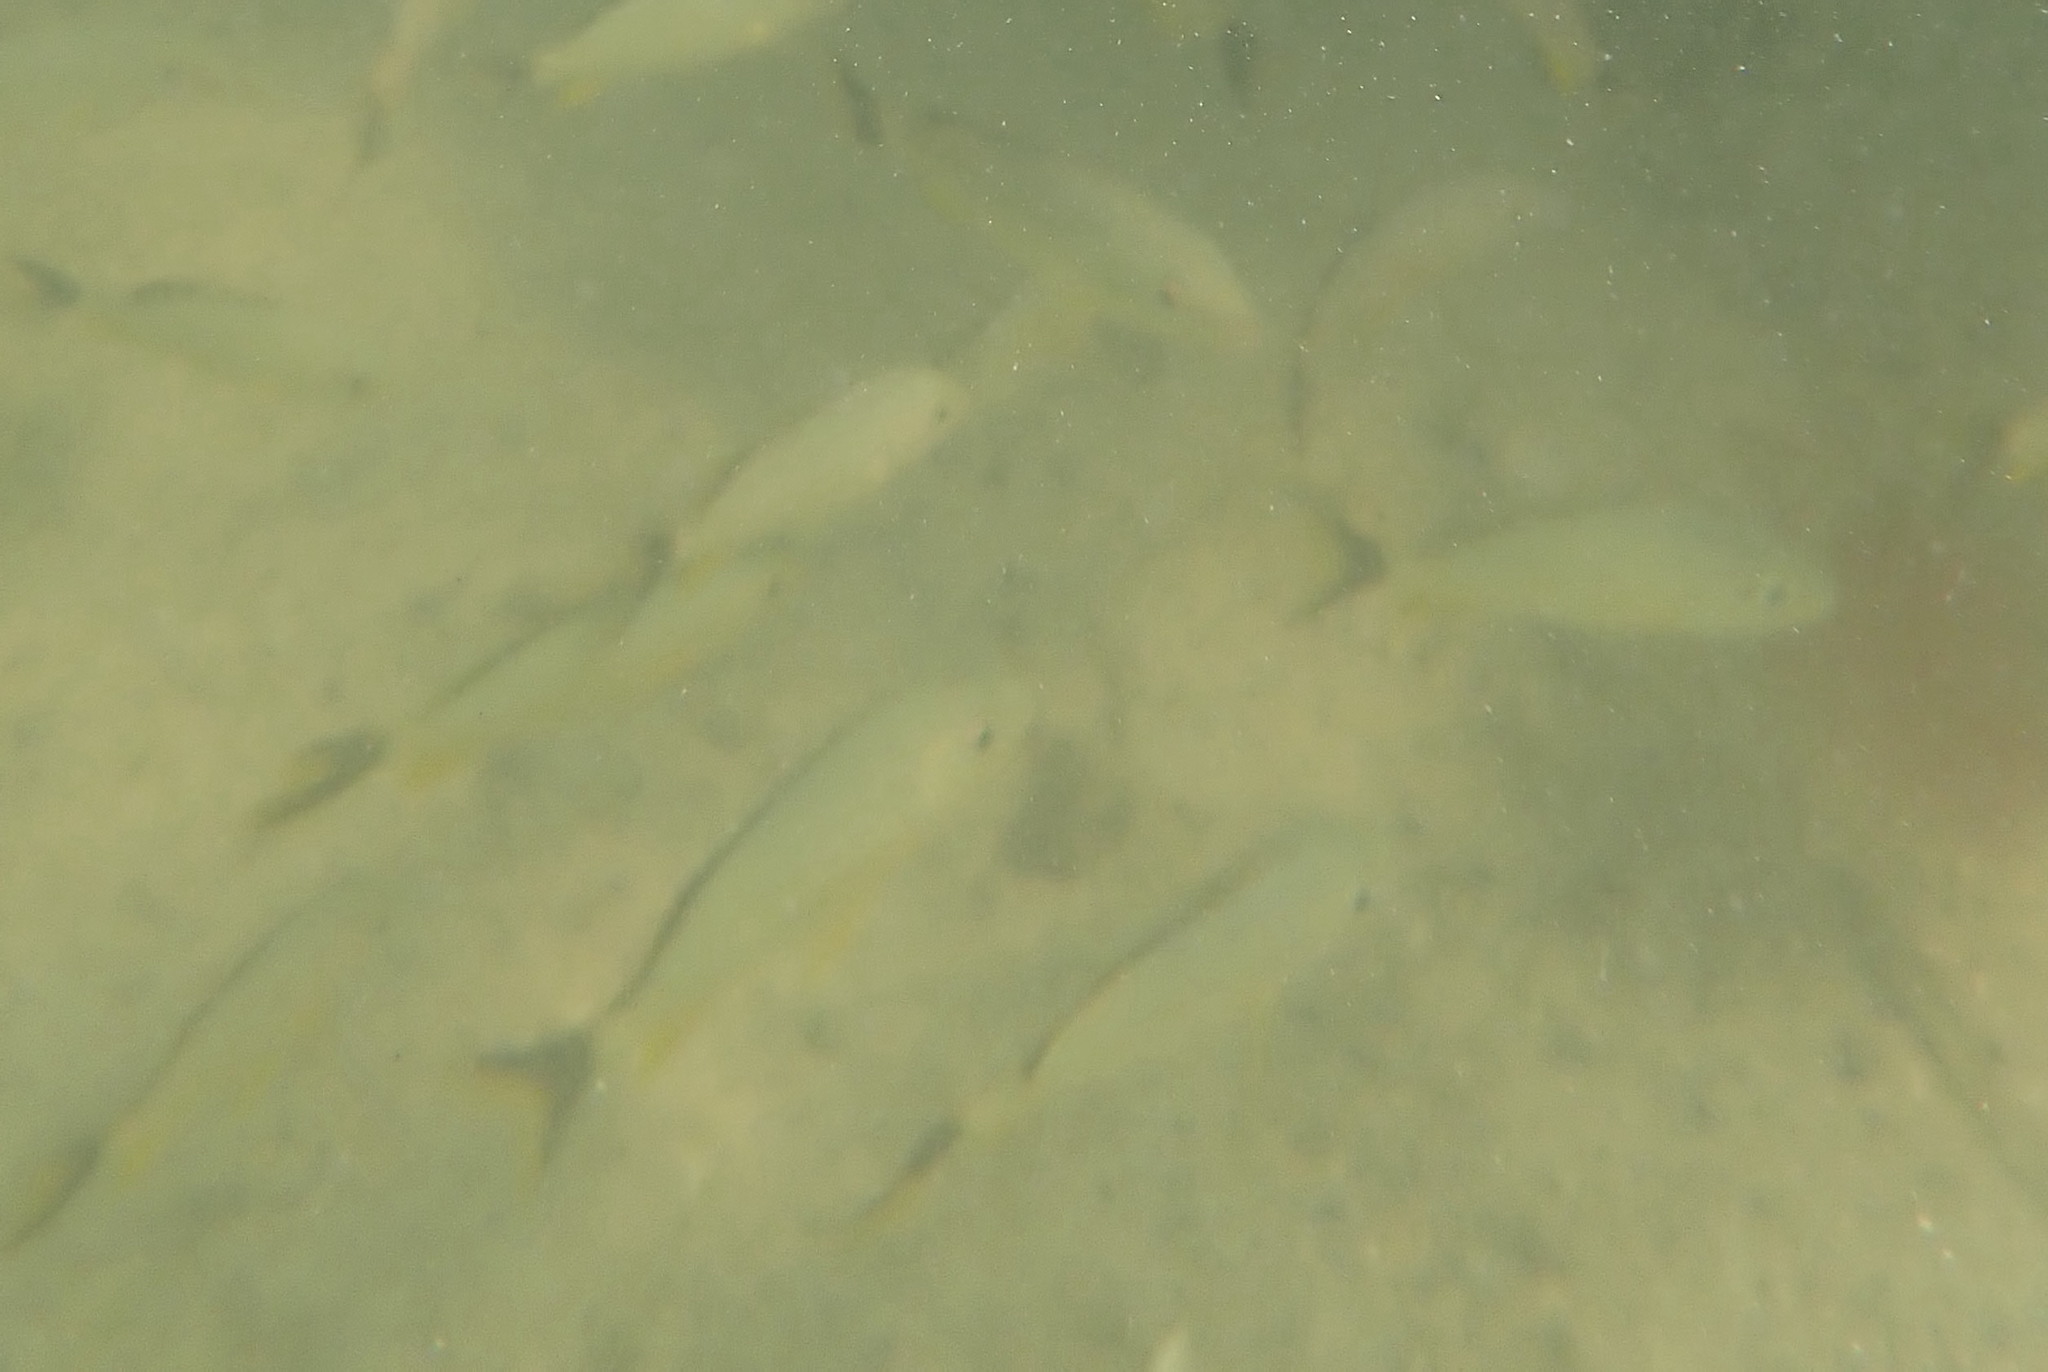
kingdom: Animalia
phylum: Chordata
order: Perciformes
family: Haemulidae
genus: Haemulon
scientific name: Haemulon sciurus
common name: Bluestriped grunt
